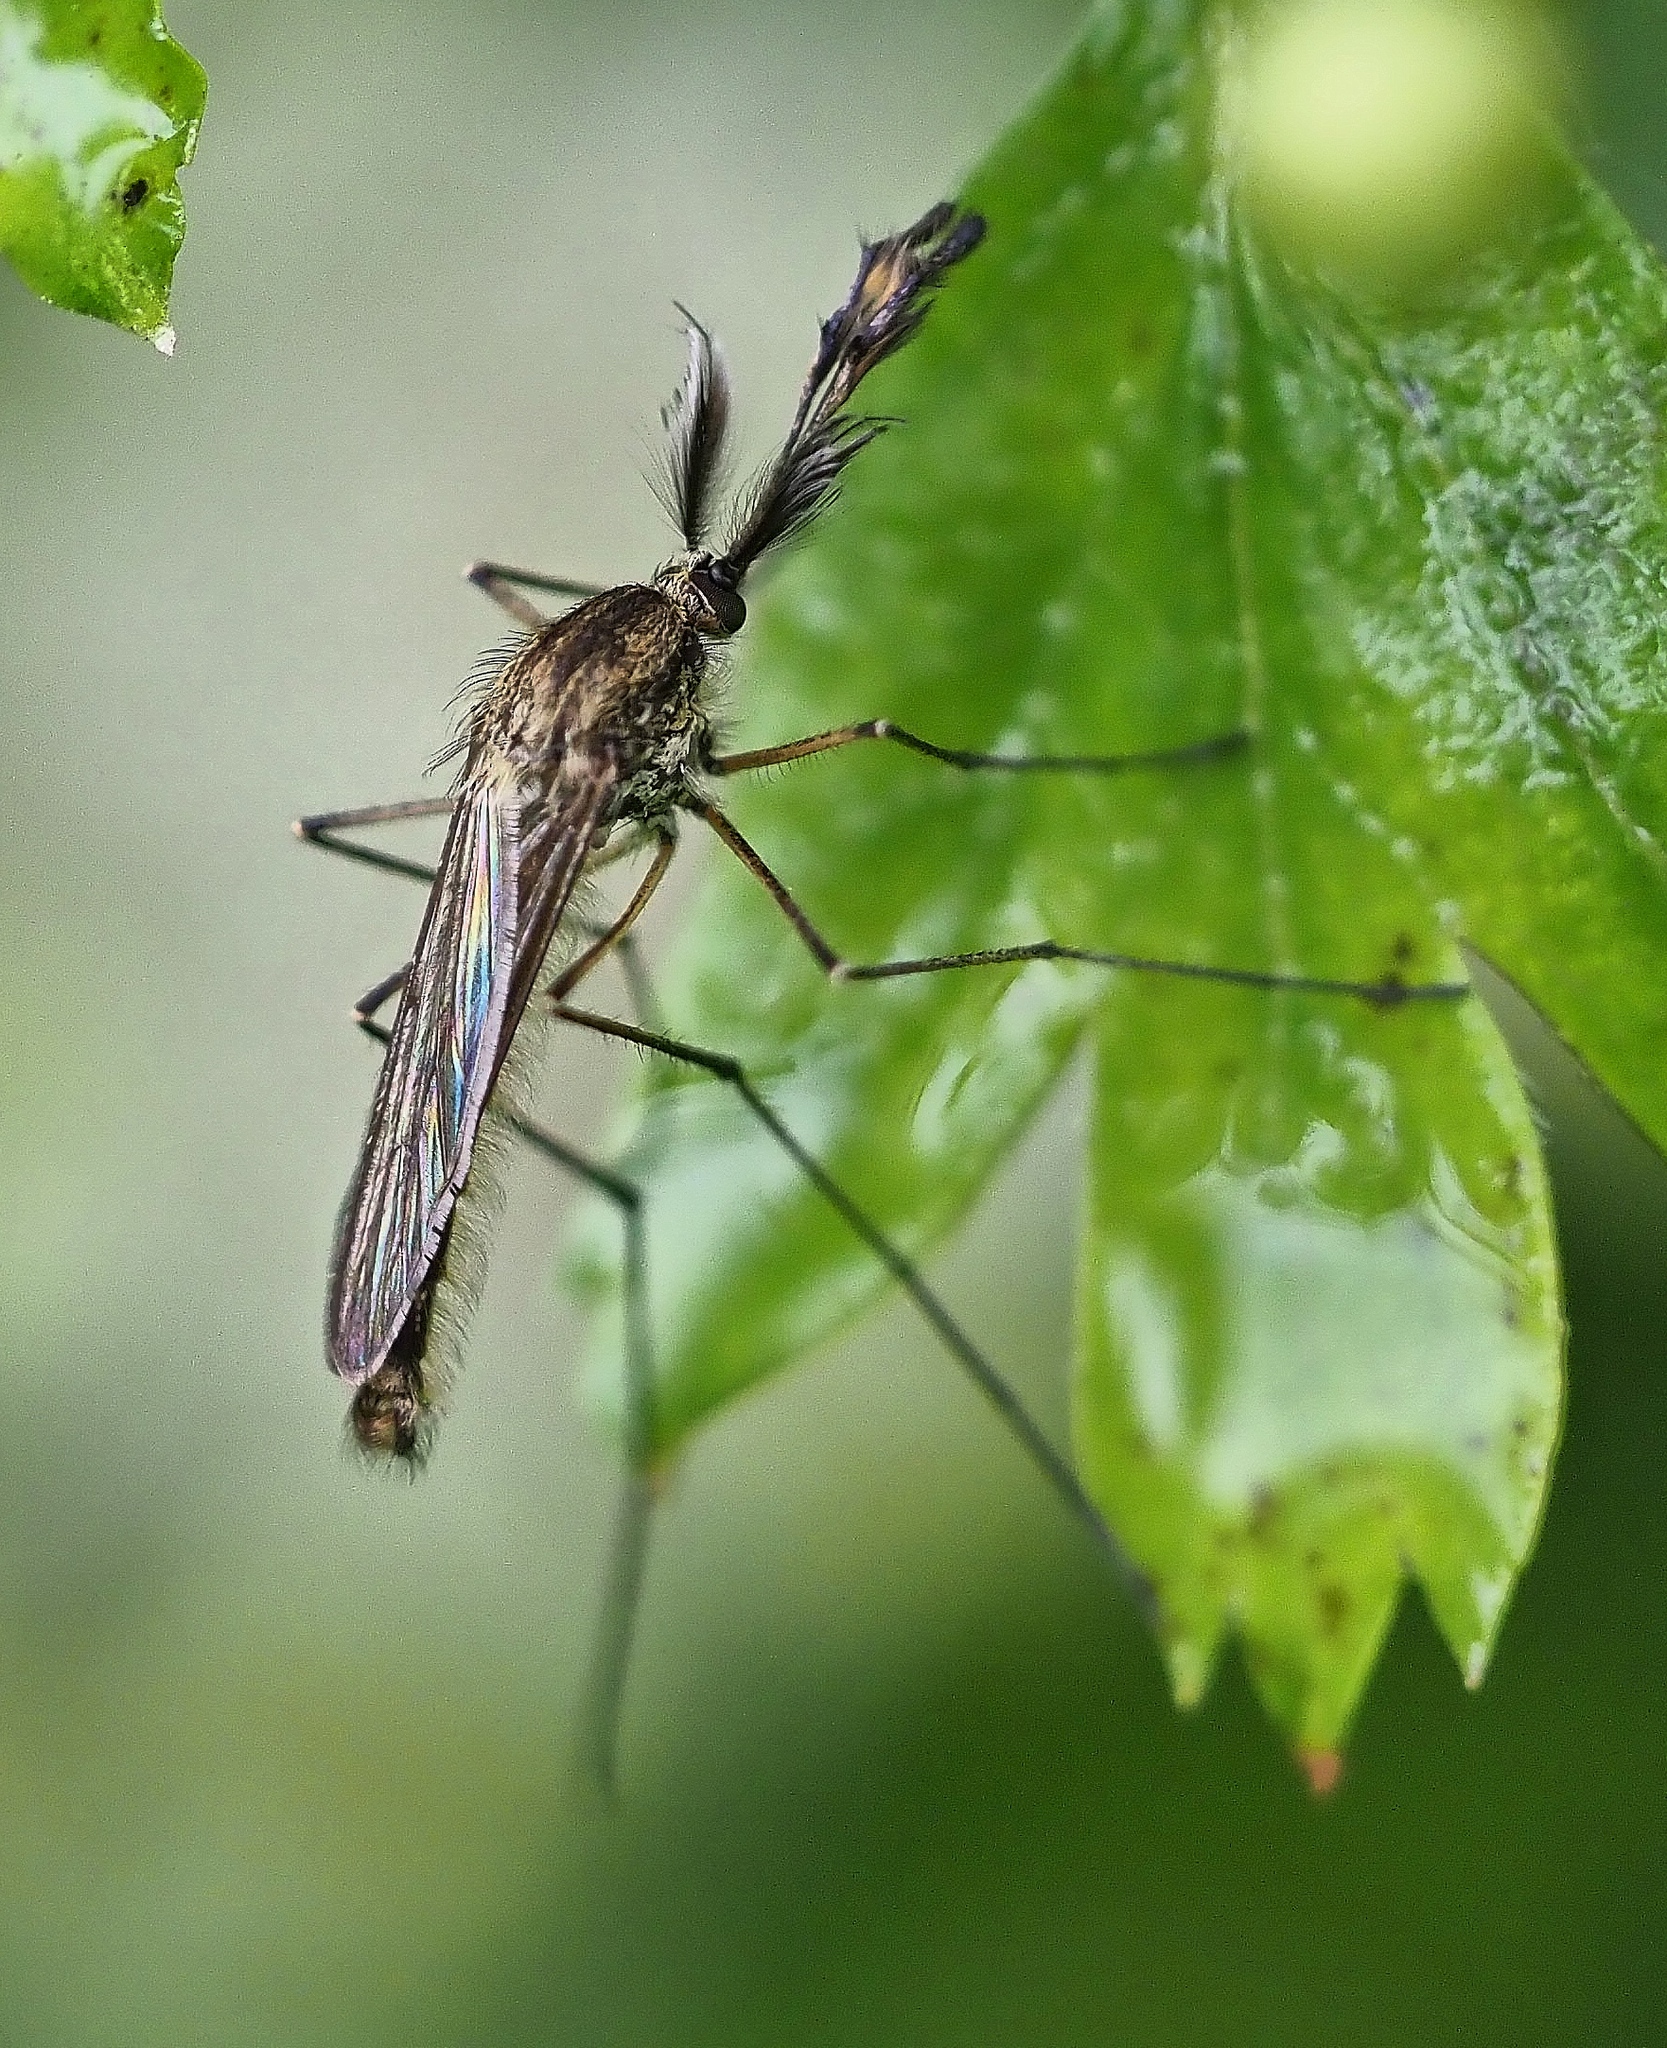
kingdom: Animalia
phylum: Arthropoda
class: Insecta
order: Diptera
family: Culicidae
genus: Aedes
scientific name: Aedes punctor
